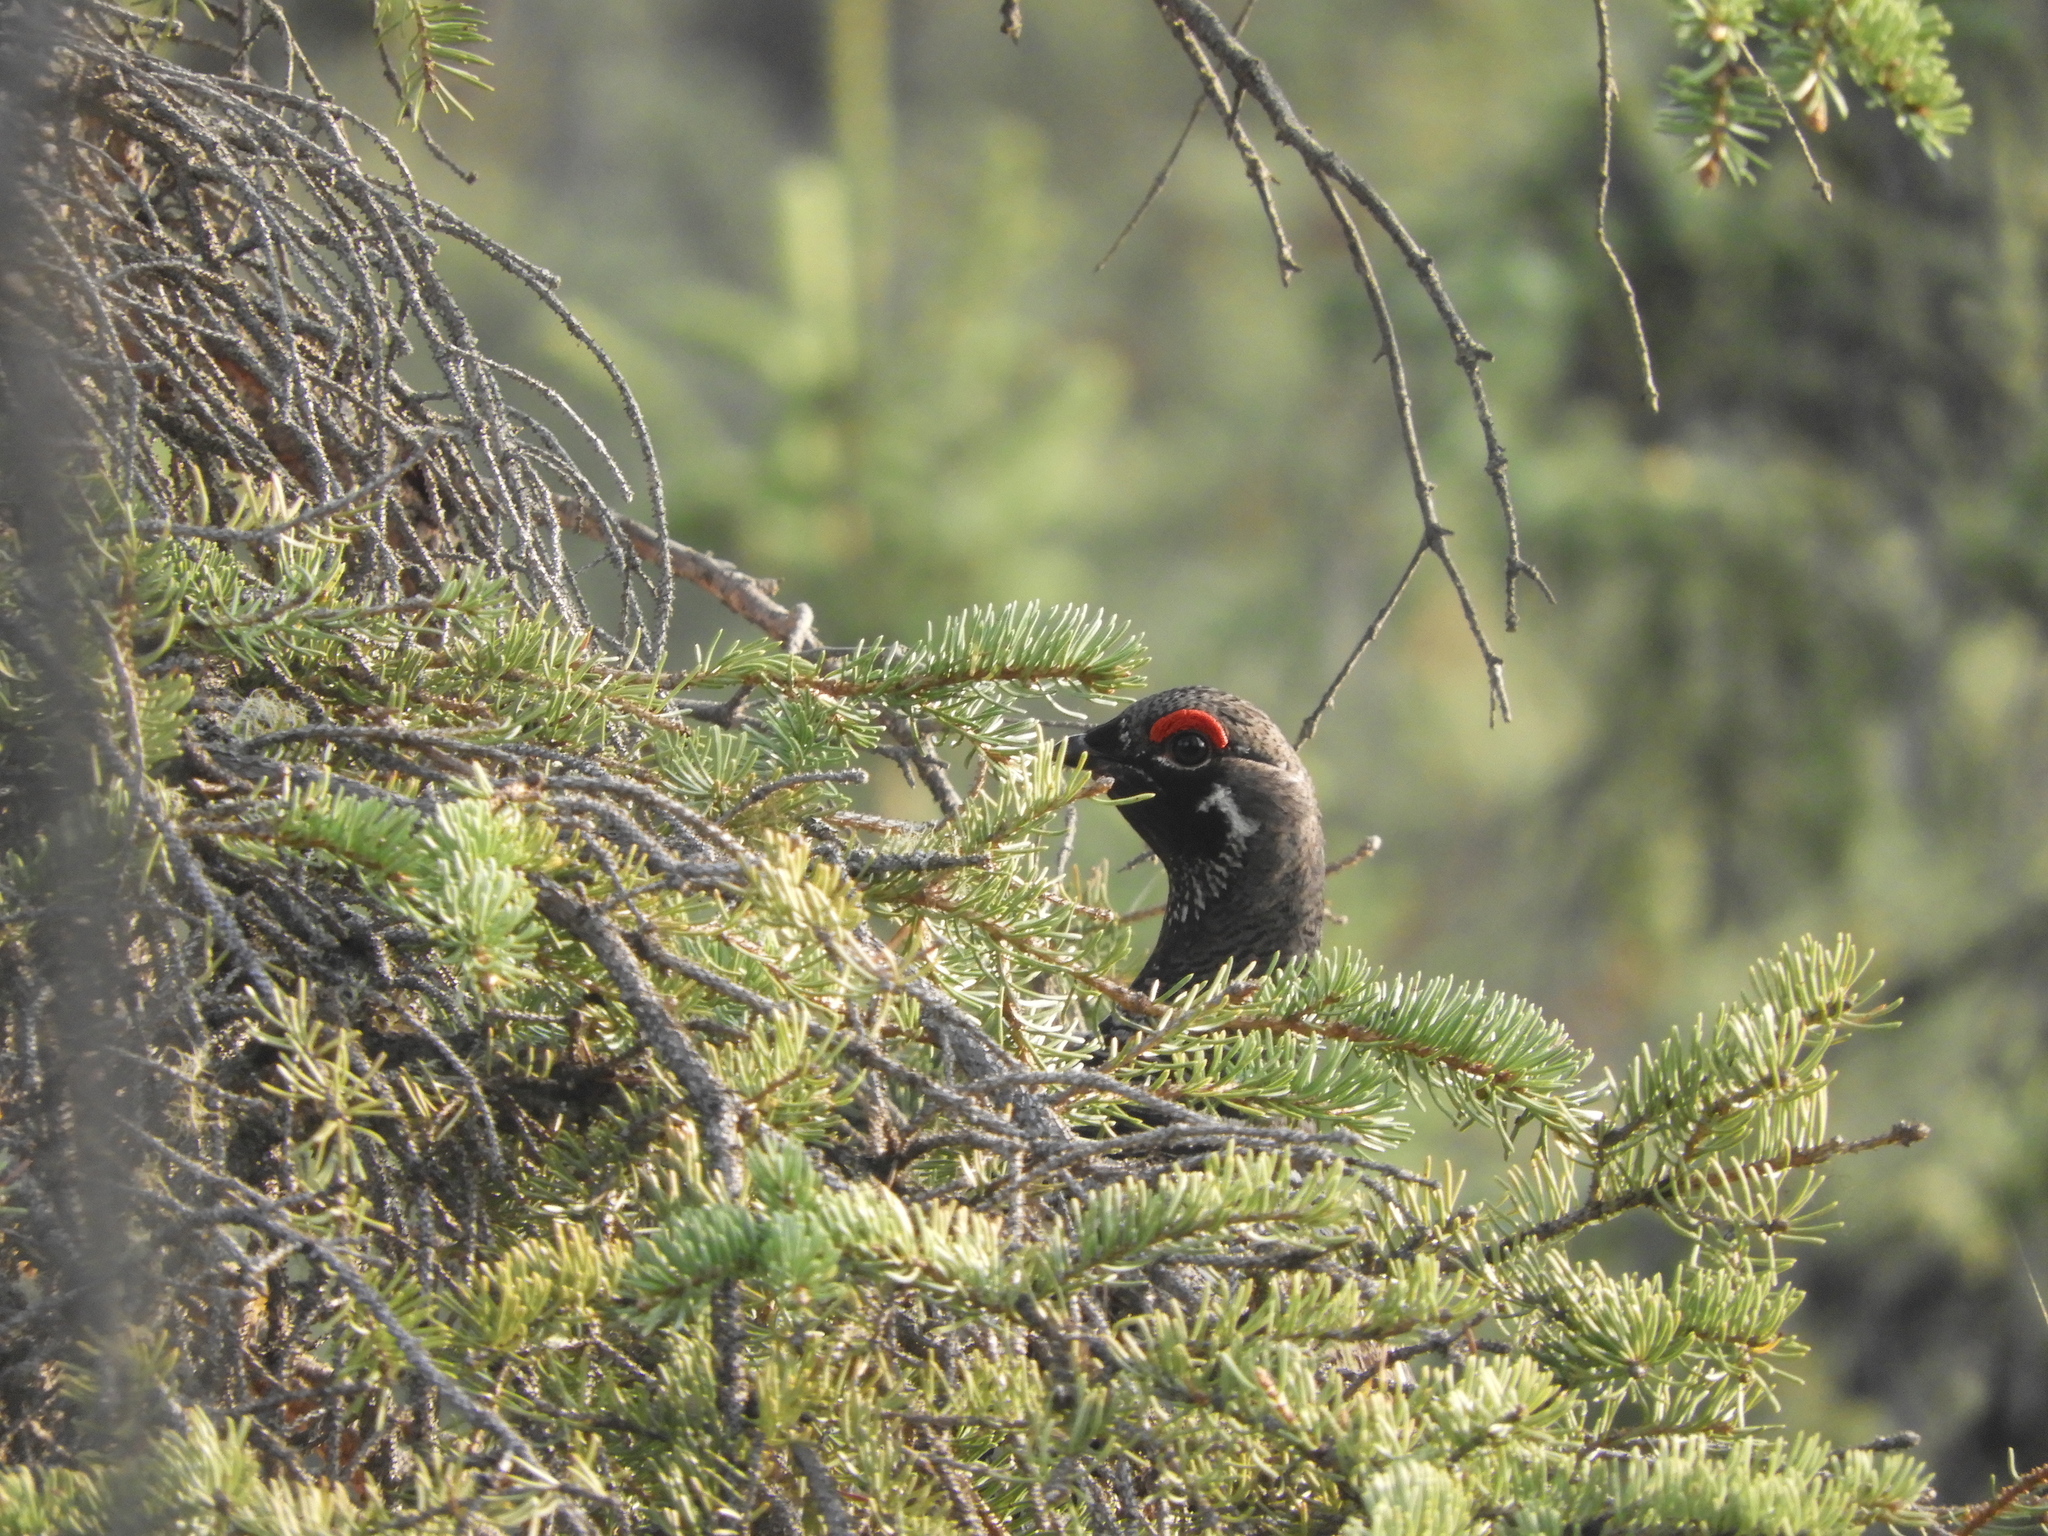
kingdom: Animalia
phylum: Chordata
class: Aves
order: Galliformes
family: Phasianidae
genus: Canachites
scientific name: Canachites canadensis
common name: Spruce grouse
